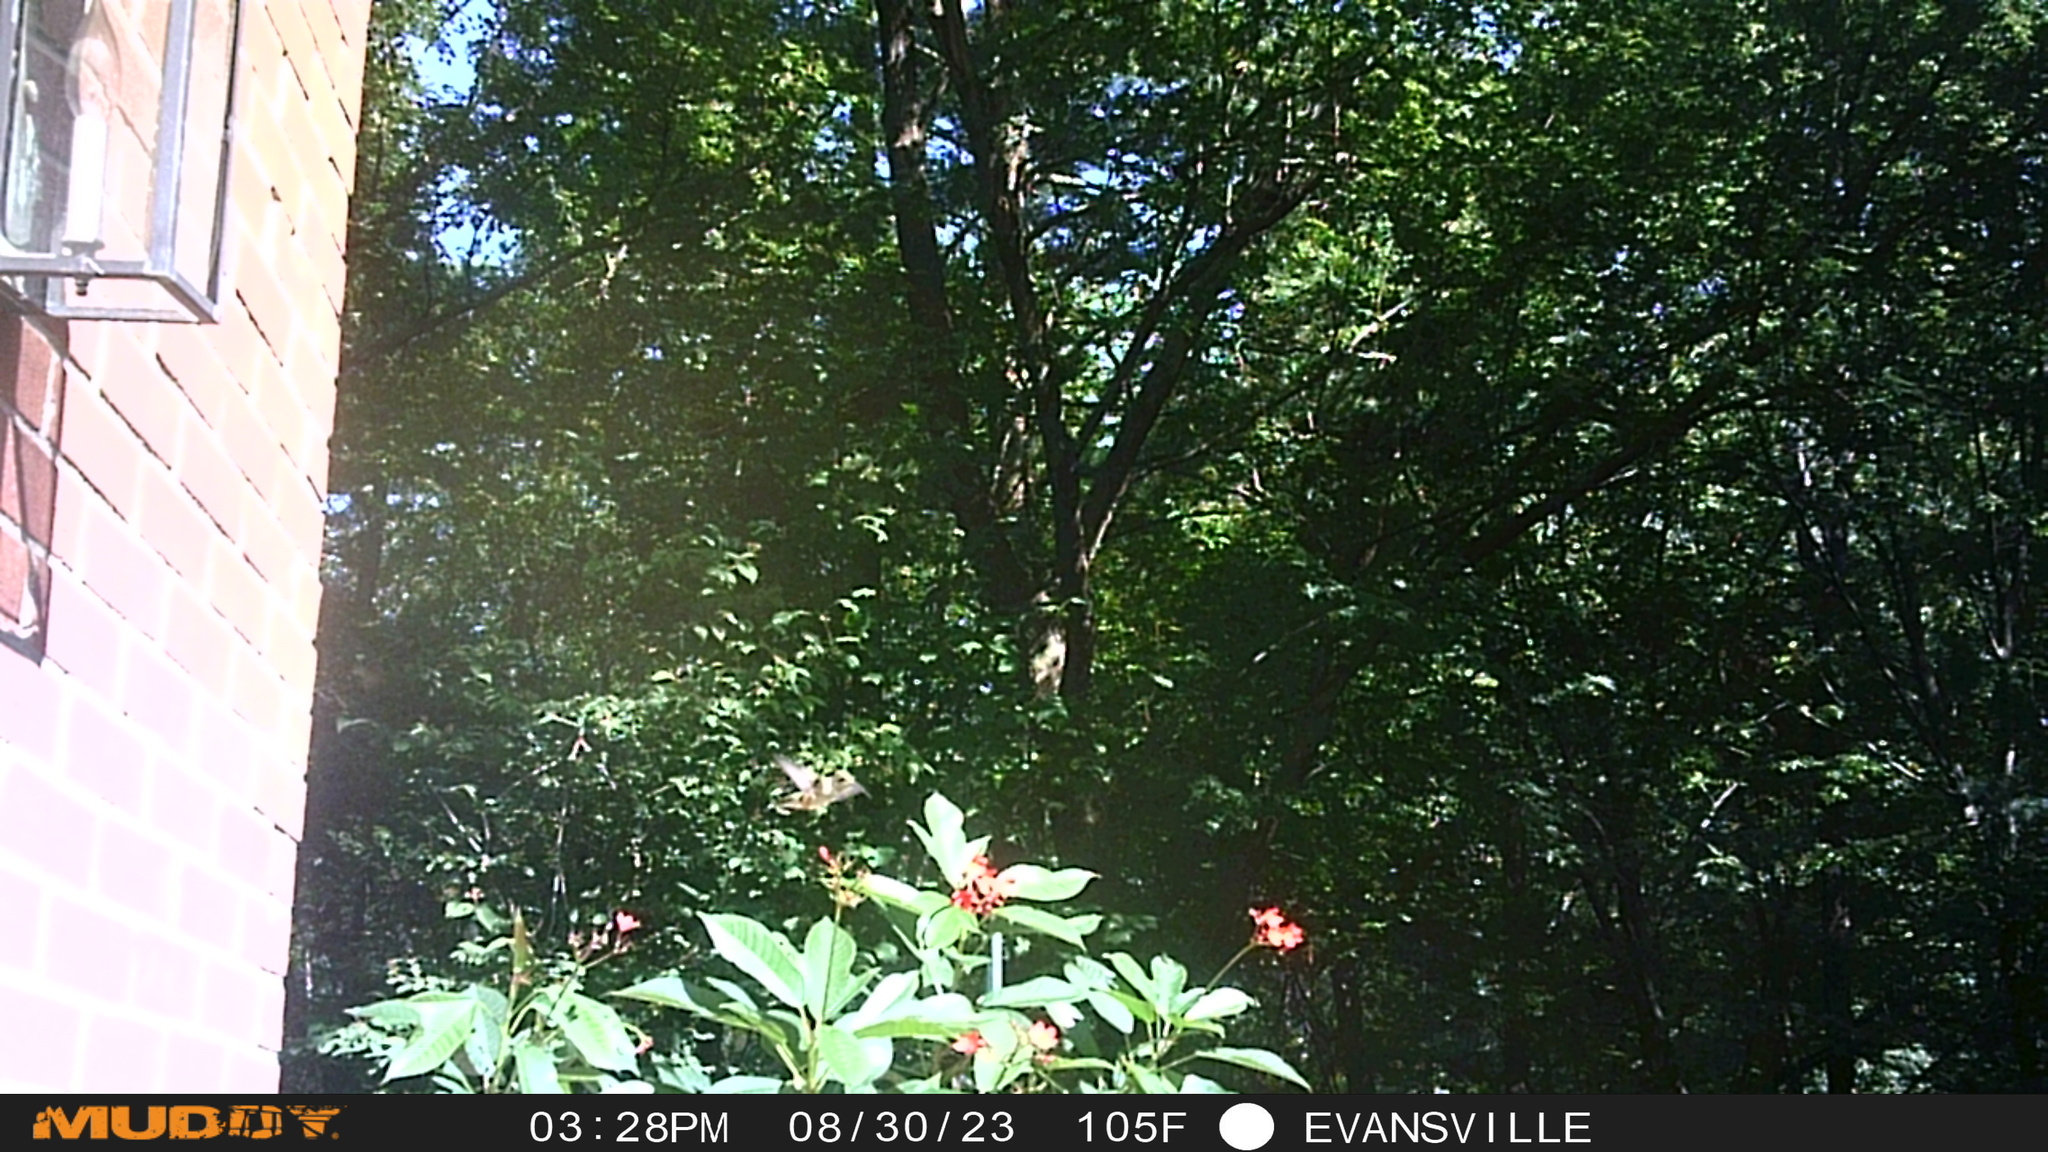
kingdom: Animalia
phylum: Chordata
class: Aves
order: Apodiformes
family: Trochilidae
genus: Archilochus
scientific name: Archilochus colubris
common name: Ruby-throated hummingbird
